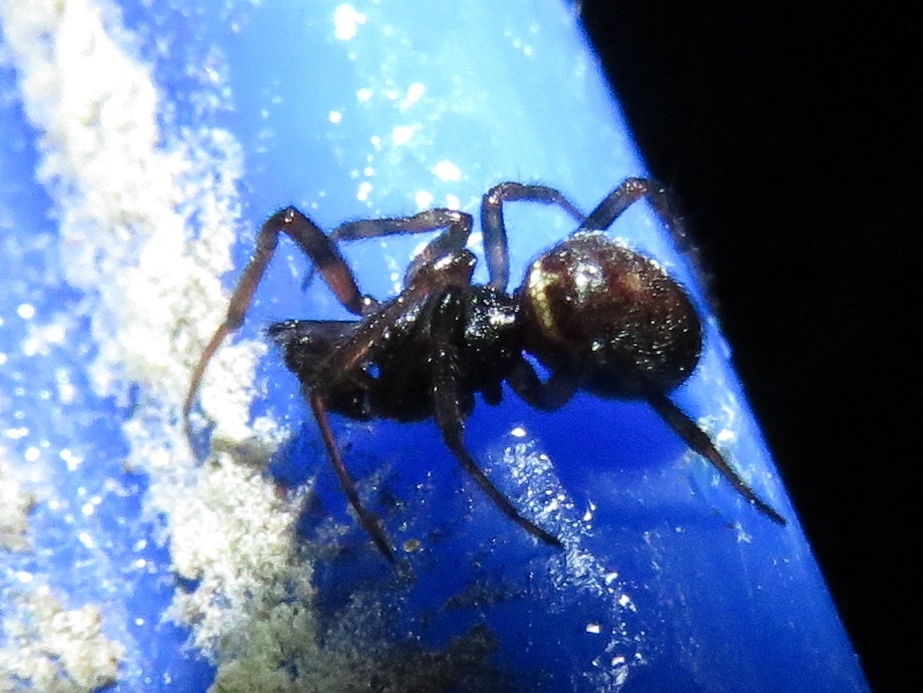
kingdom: Animalia
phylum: Arthropoda
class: Arachnida
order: Araneae
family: Theridiidae
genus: Steatoda
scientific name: Steatoda bipunctata
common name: False widow
